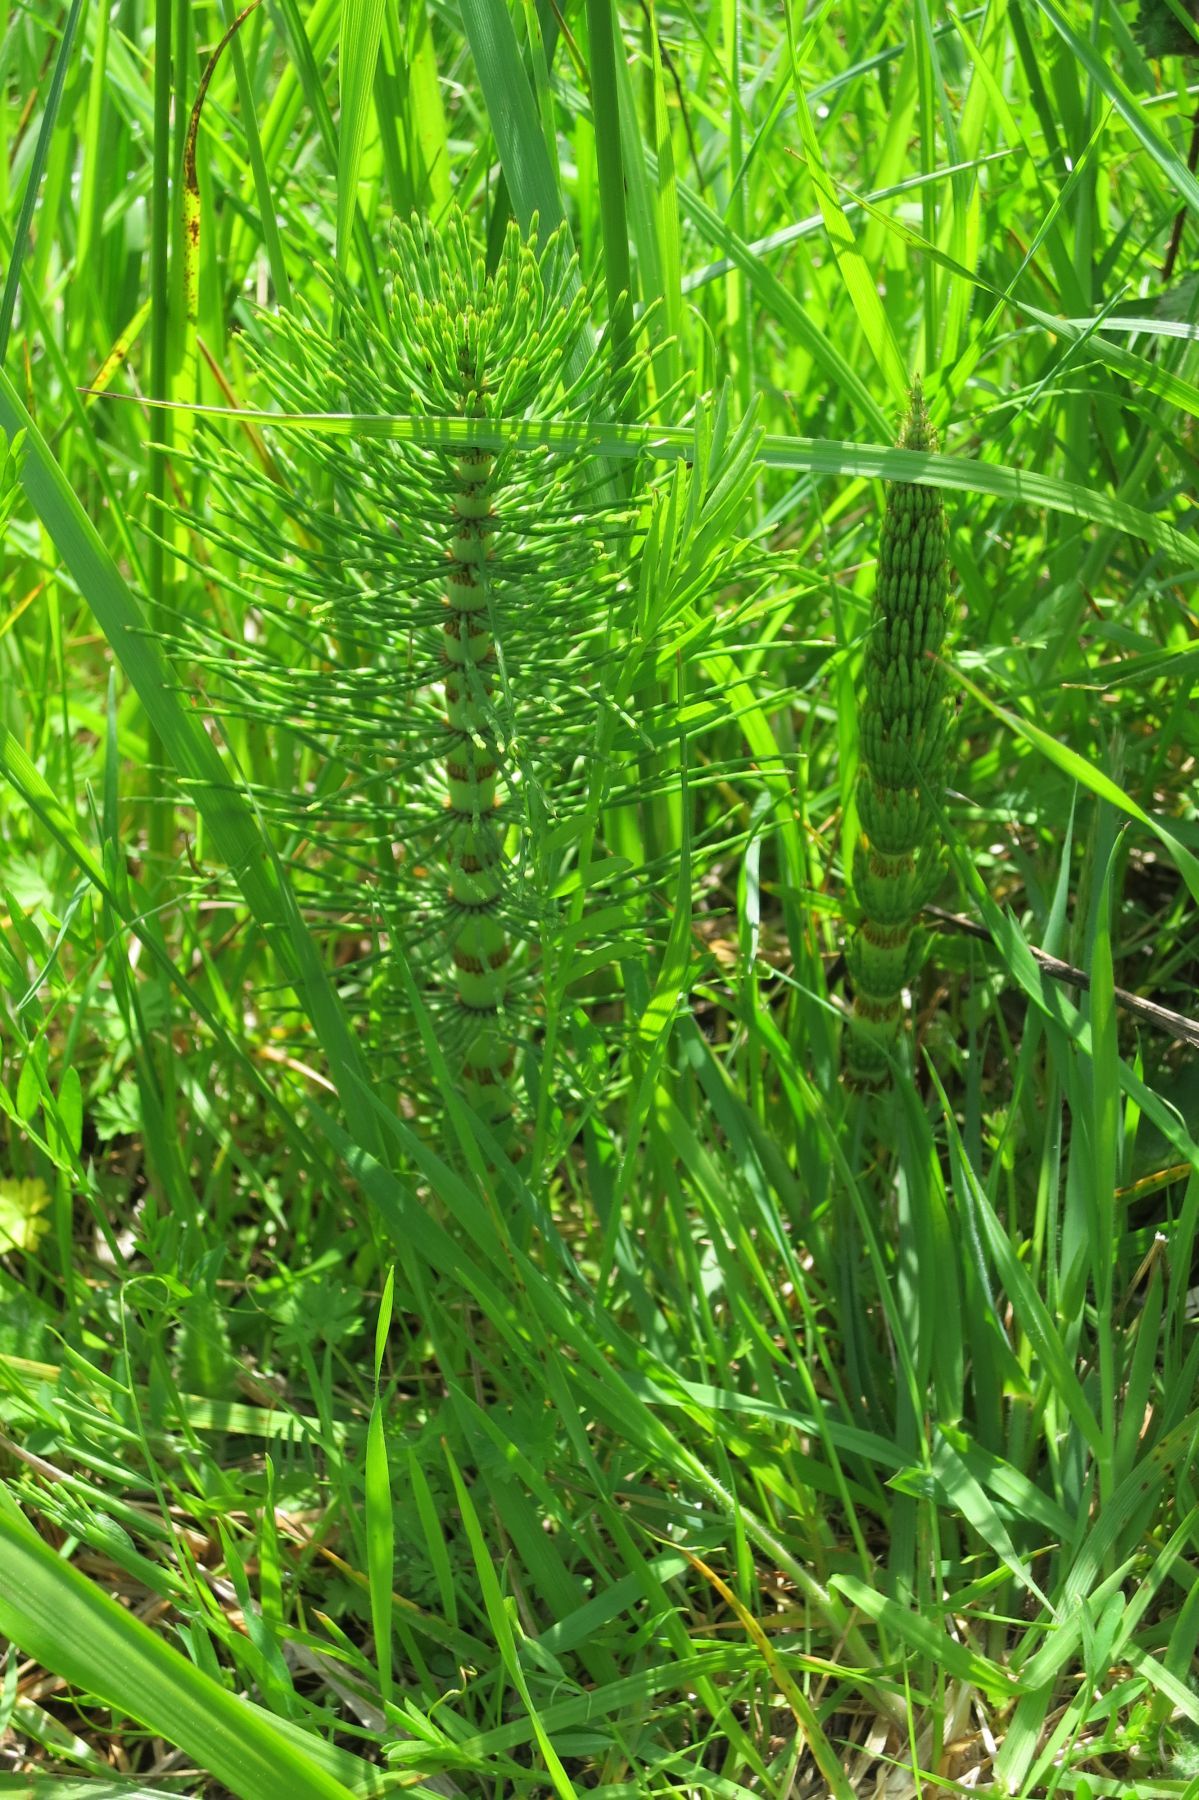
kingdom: Plantae
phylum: Tracheophyta
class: Polypodiopsida
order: Equisetales
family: Equisetaceae
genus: Equisetum
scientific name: Equisetum braunii
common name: Braun's horsetail
